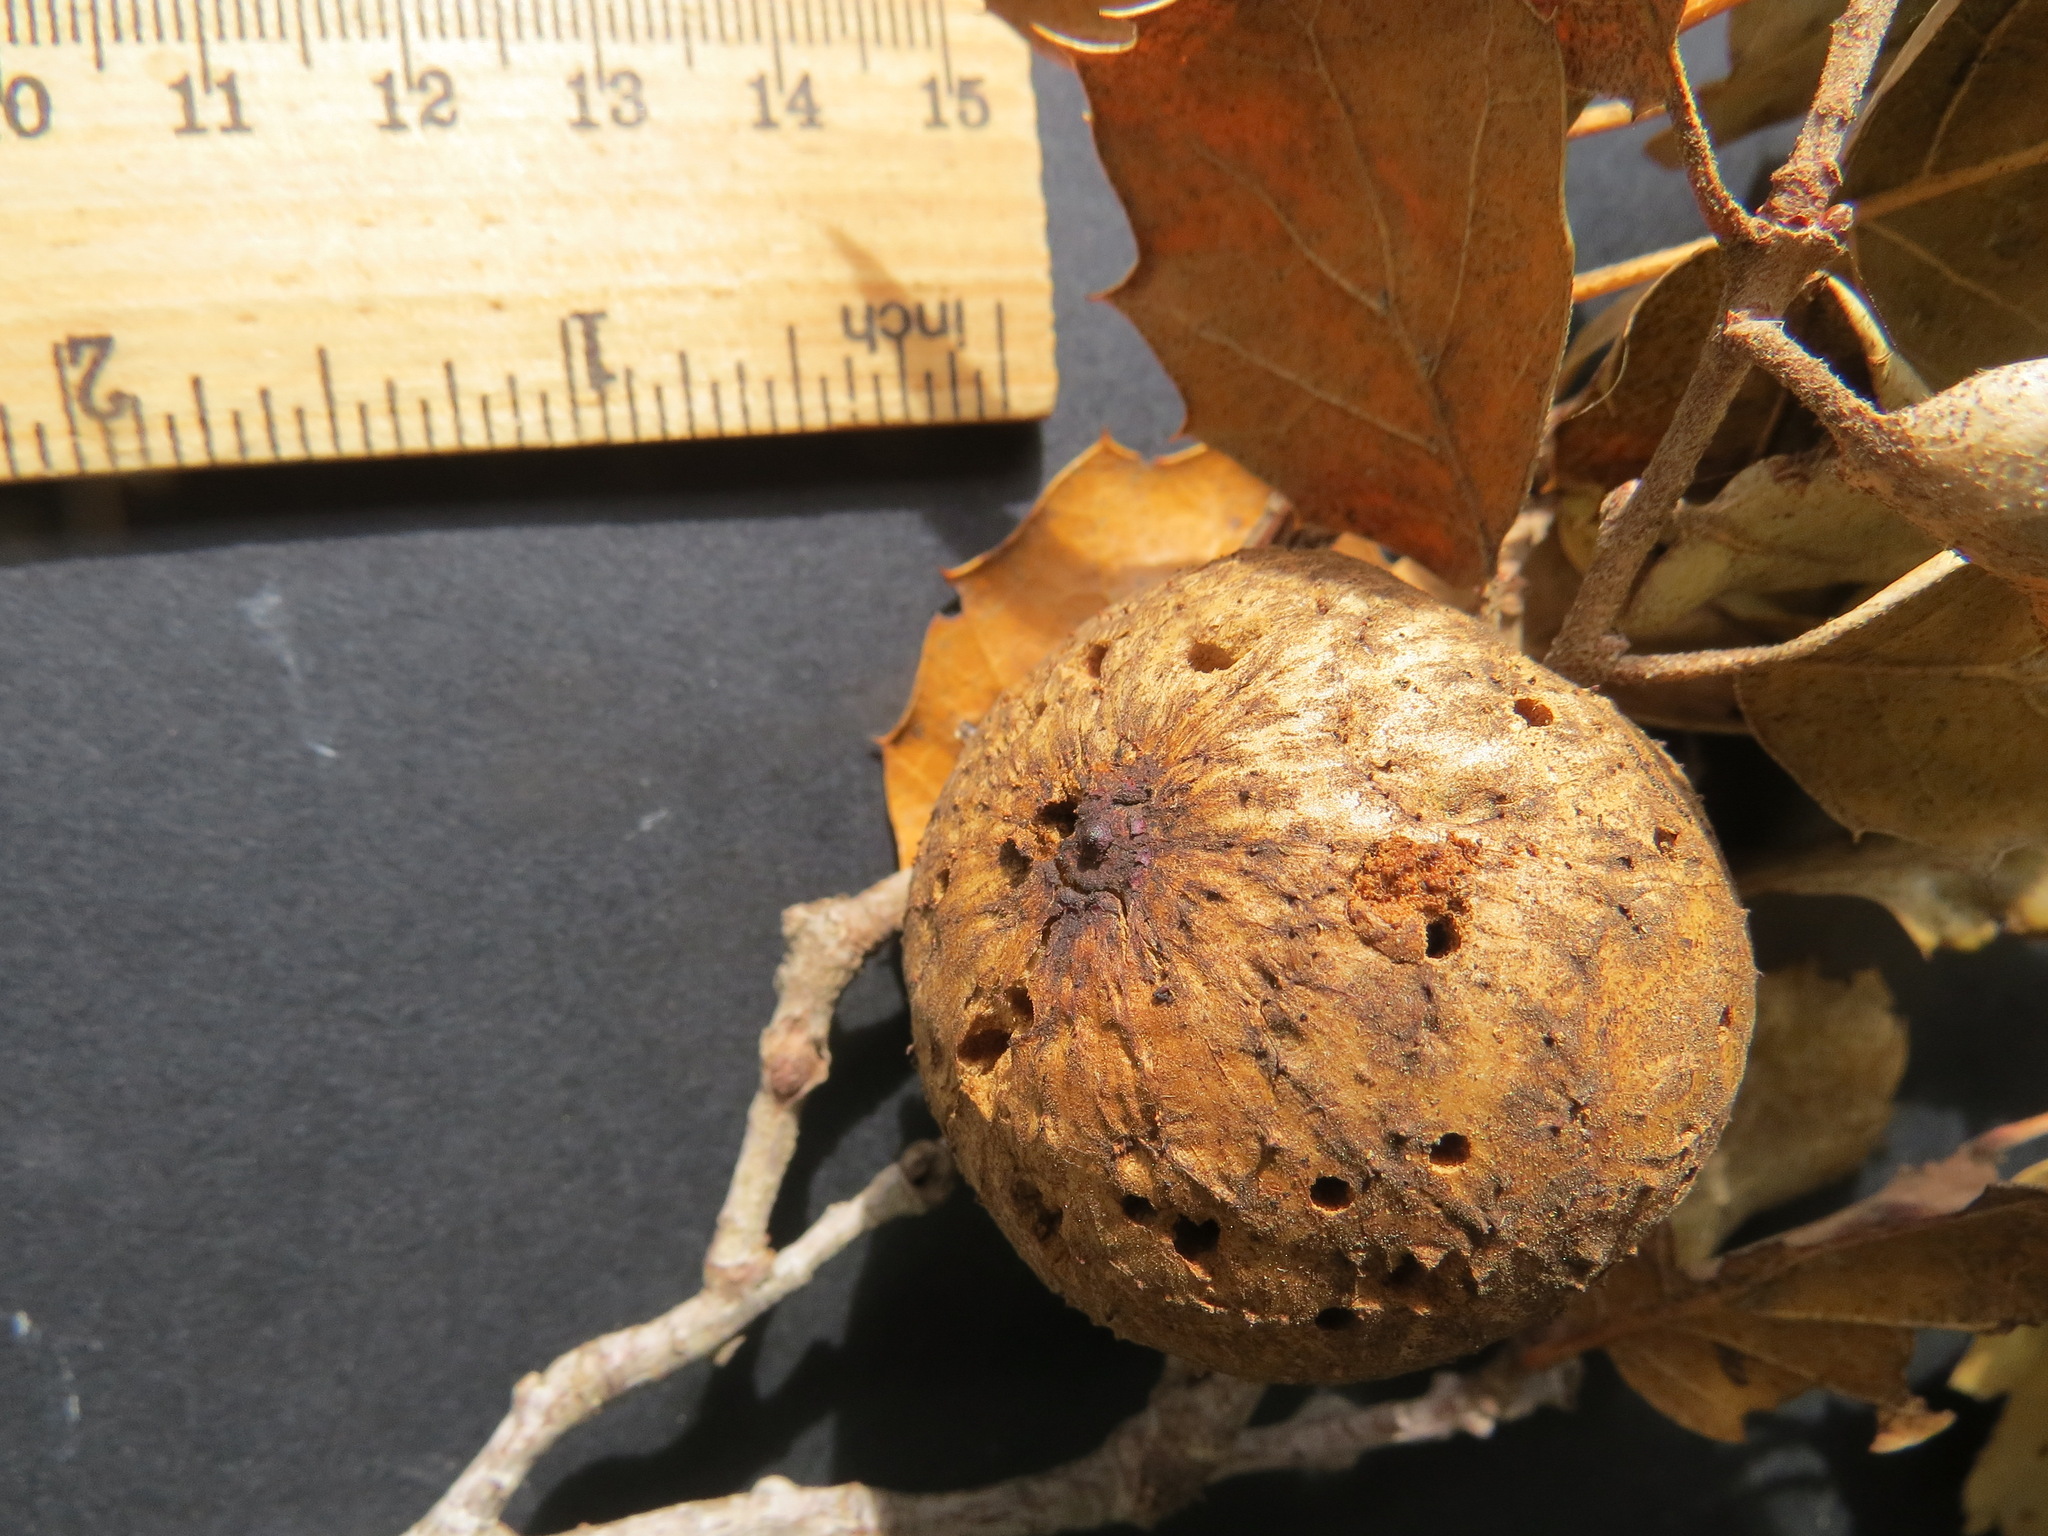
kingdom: Animalia
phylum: Arthropoda
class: Insecta
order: Hymenoptera
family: Cynipidae
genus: Amphibolips
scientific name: Amphibolips quercuspomiformis
